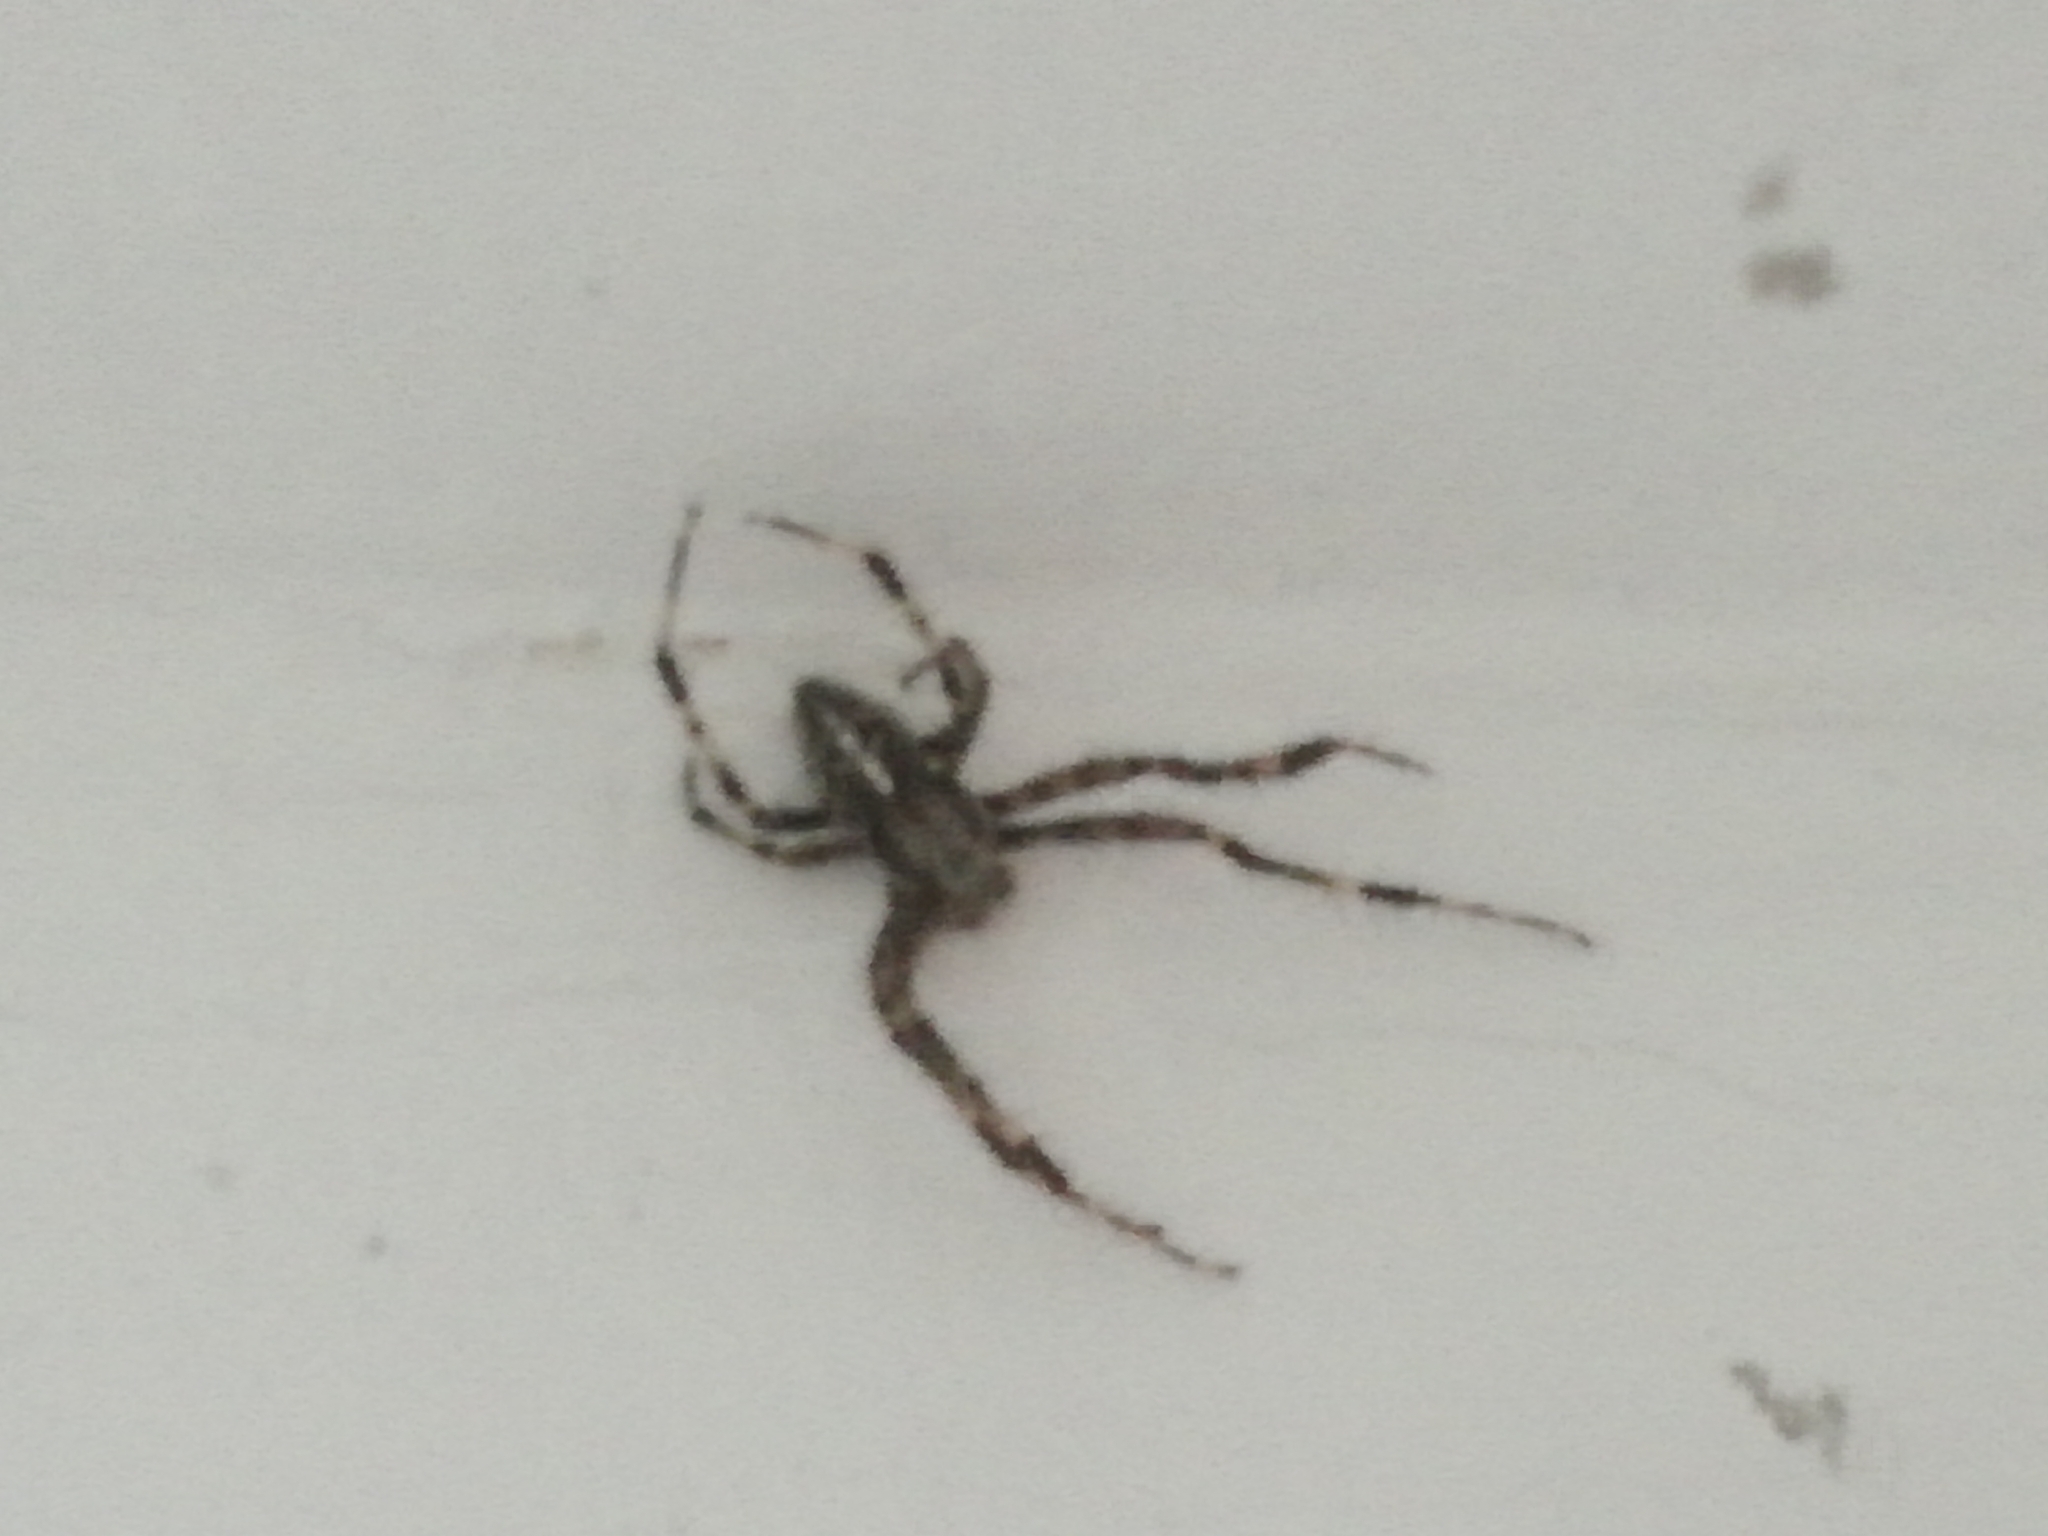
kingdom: Animalia
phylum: Arthropoda
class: Arachnida
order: Araneae
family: Araneidae
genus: Araneus
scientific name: Araneus diadematus
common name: Cross orbweaver
